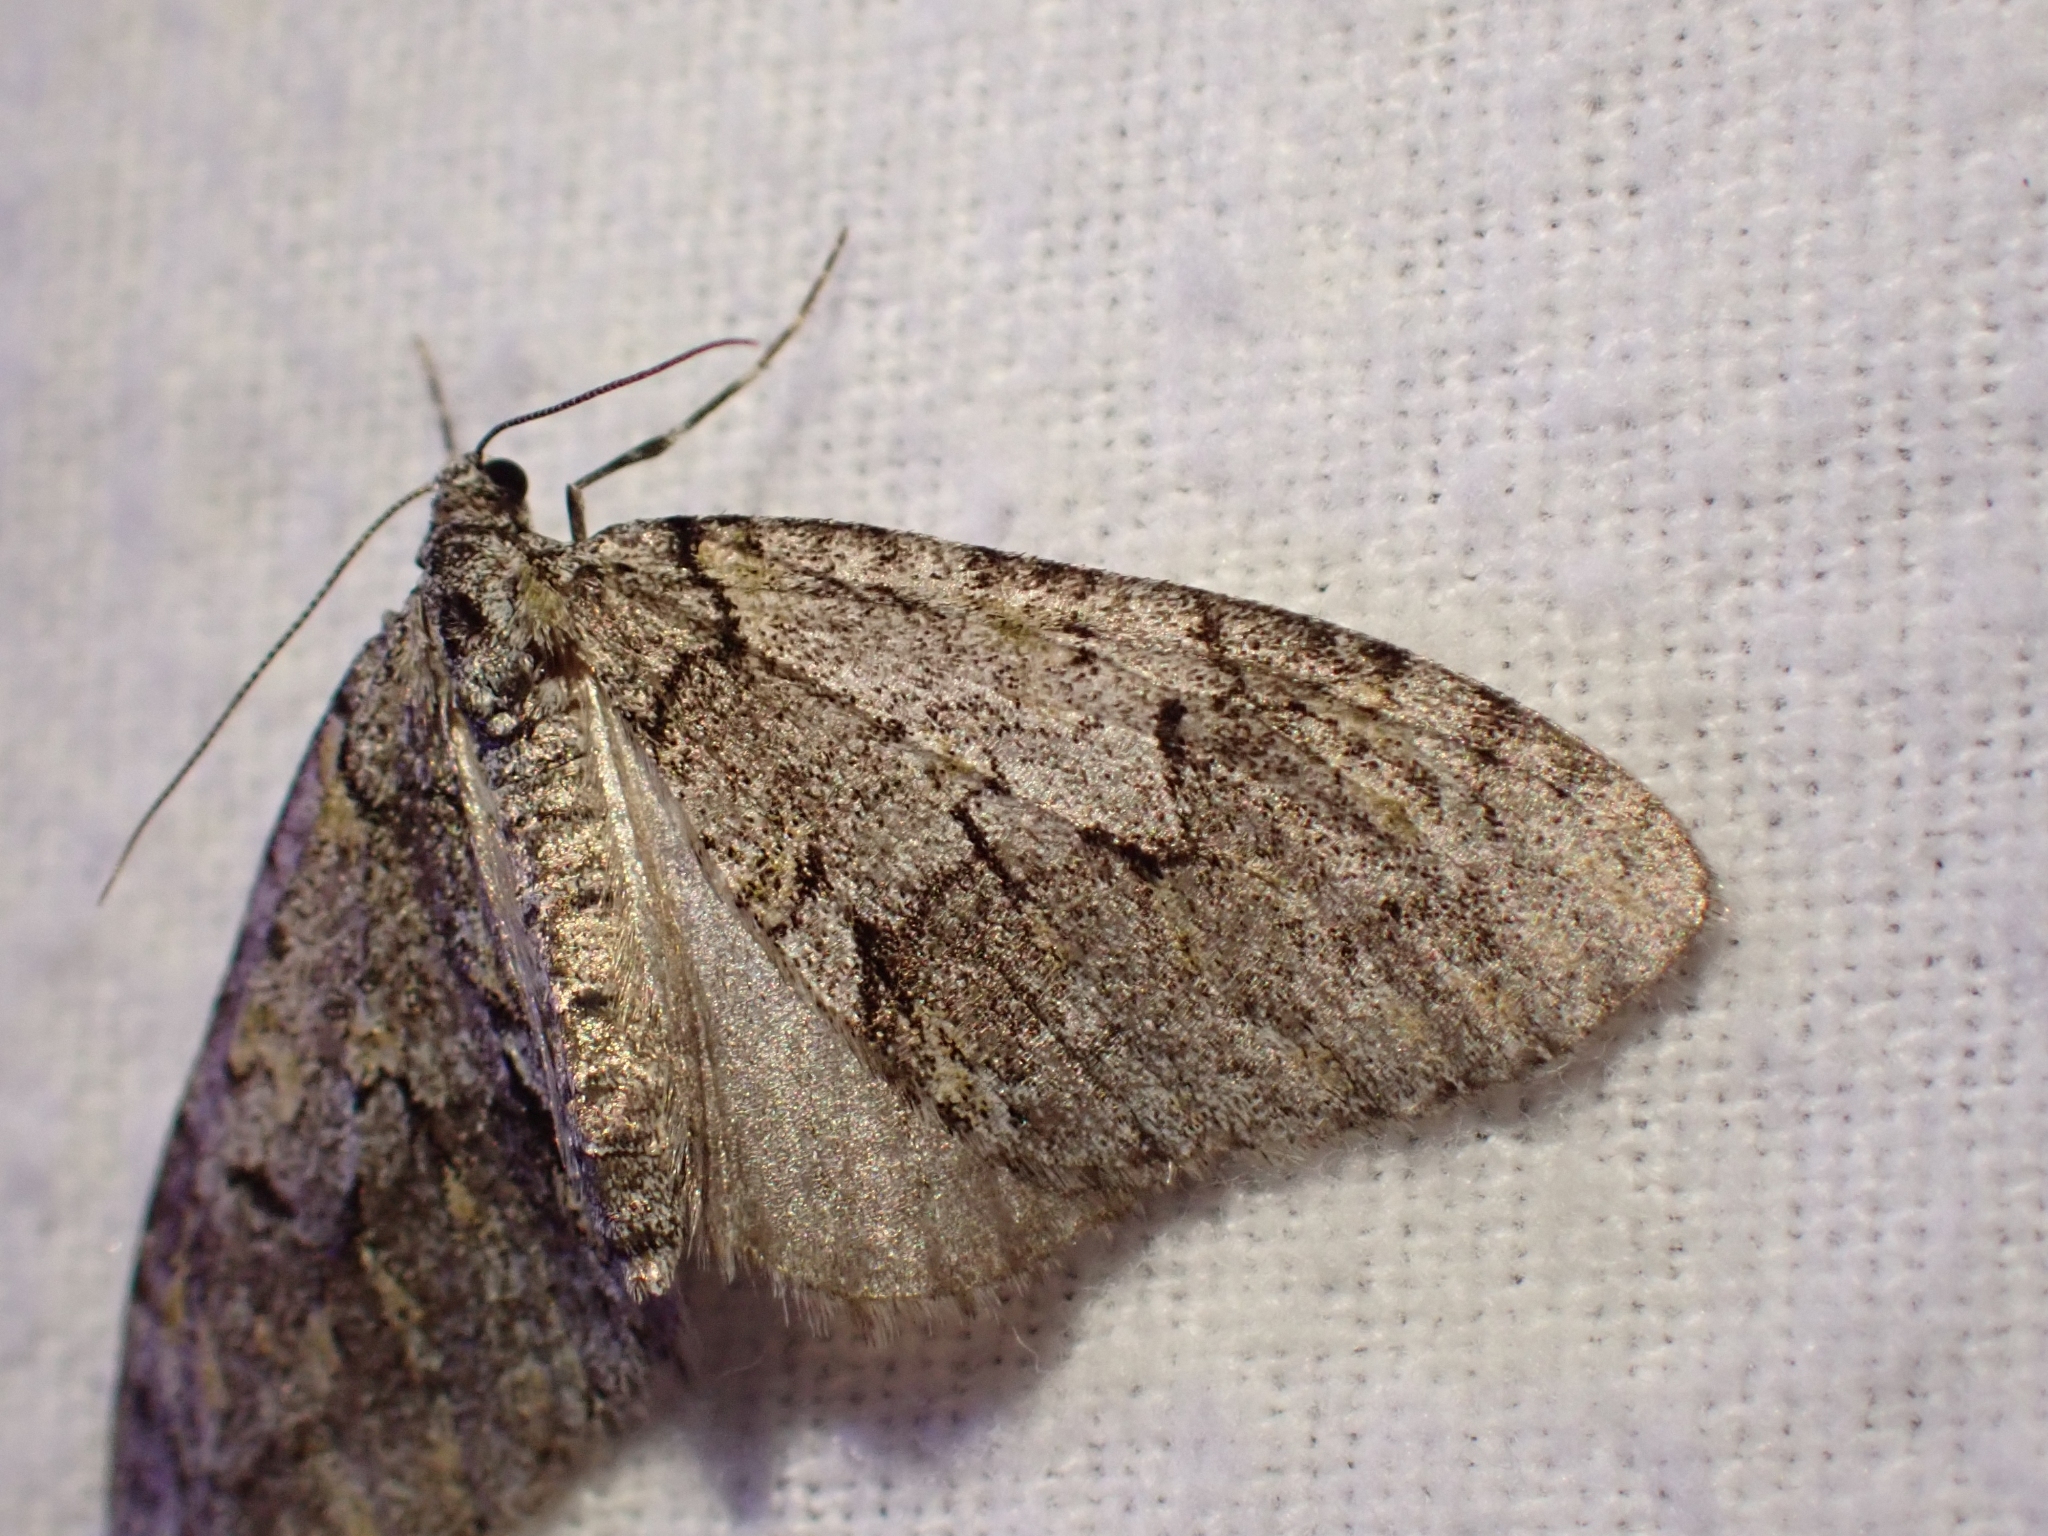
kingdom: Animalia
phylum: Arthropoda
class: Insecta
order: Lepidoptera
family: Geometridae
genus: Cladara
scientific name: Cladara limitaria
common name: Mottled gray carpet
